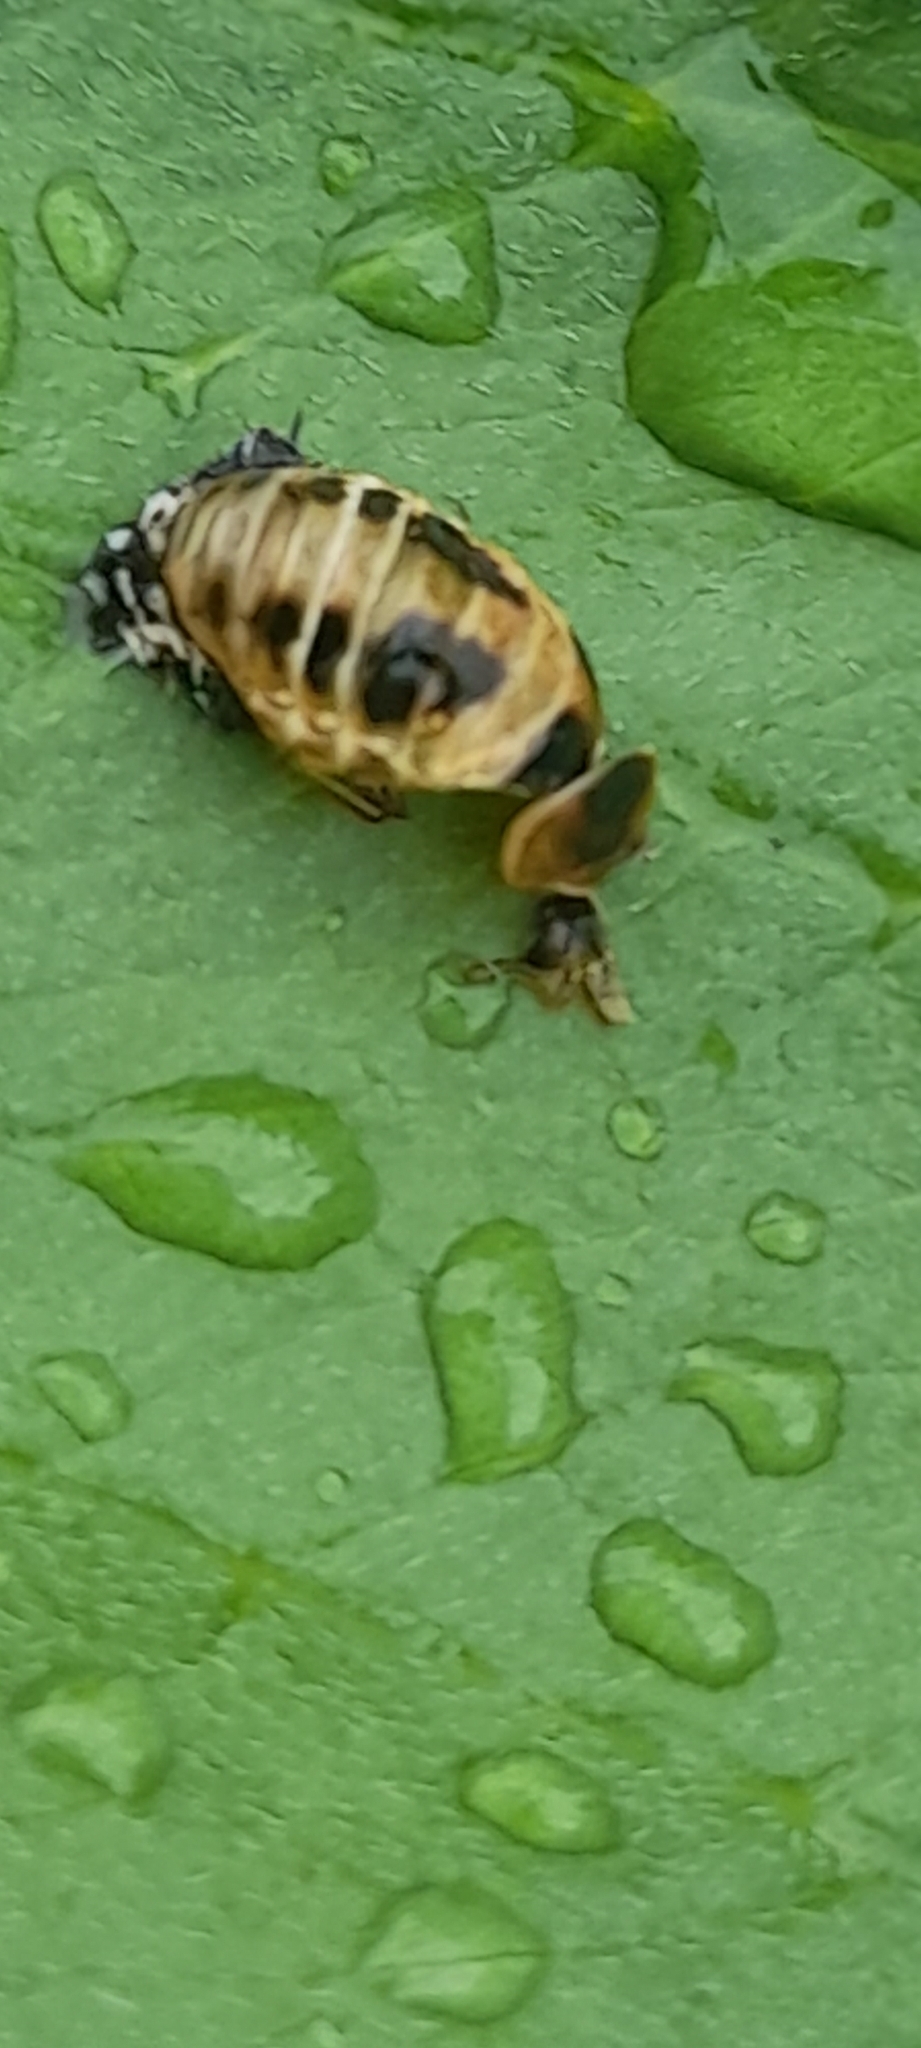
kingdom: Animalia
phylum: Arthropoda
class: Insecta
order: Coleoptera
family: Coccinellidae
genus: Harmonia
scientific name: Harmonia axyridis
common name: Harlequin ladybird
